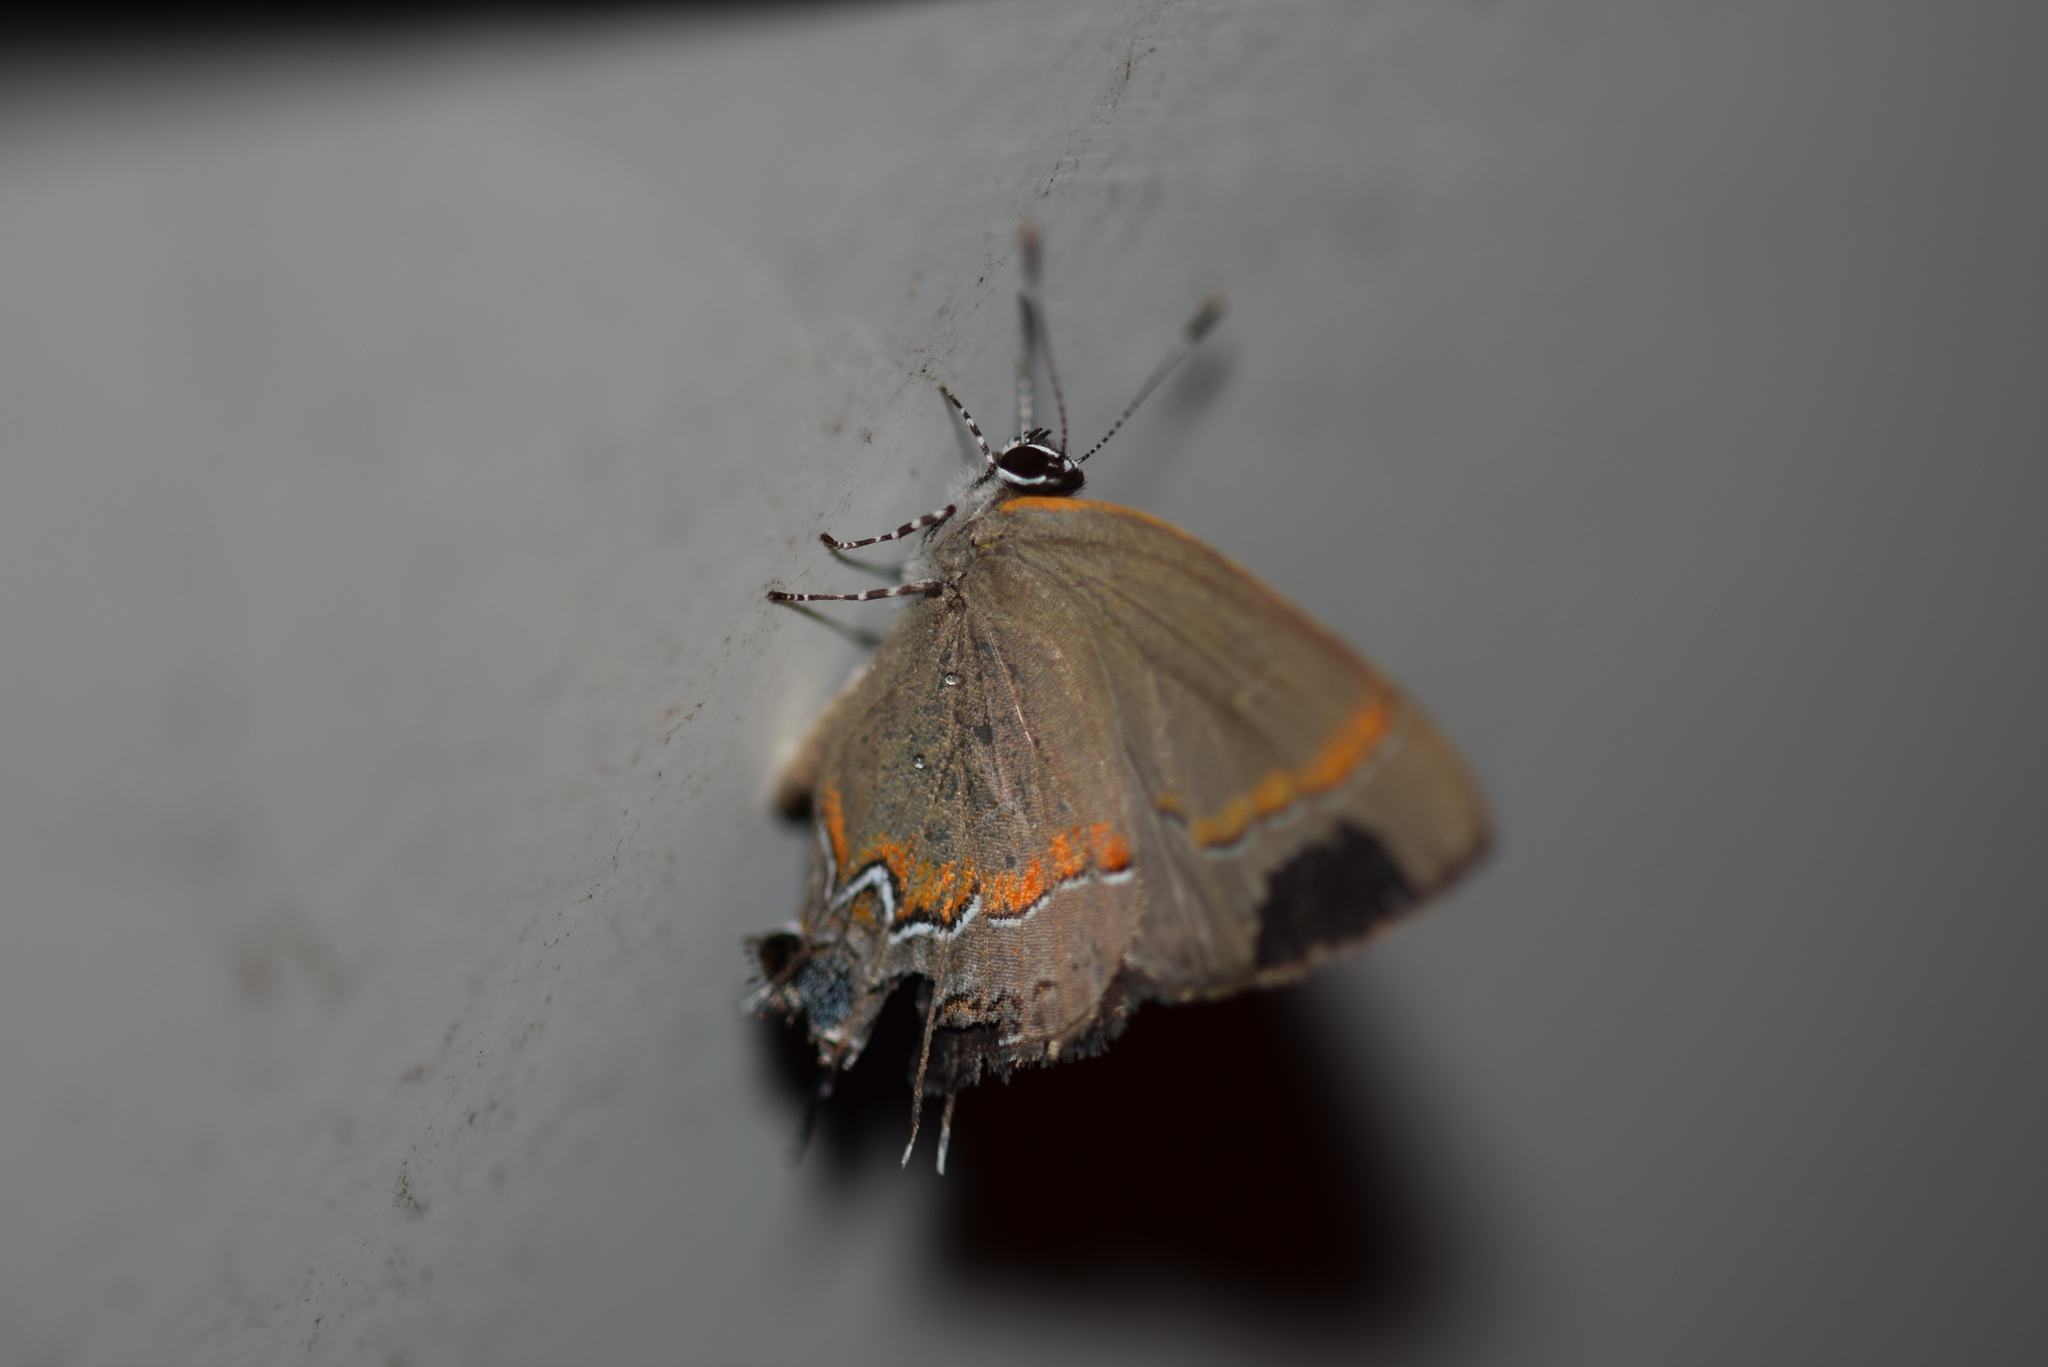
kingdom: Animalia
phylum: Arthropoda
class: Insecta
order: Lepidoptera
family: Lycaenidae
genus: Calycopis
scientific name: Calycopis cecrops
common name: Red-banded hairstreak
